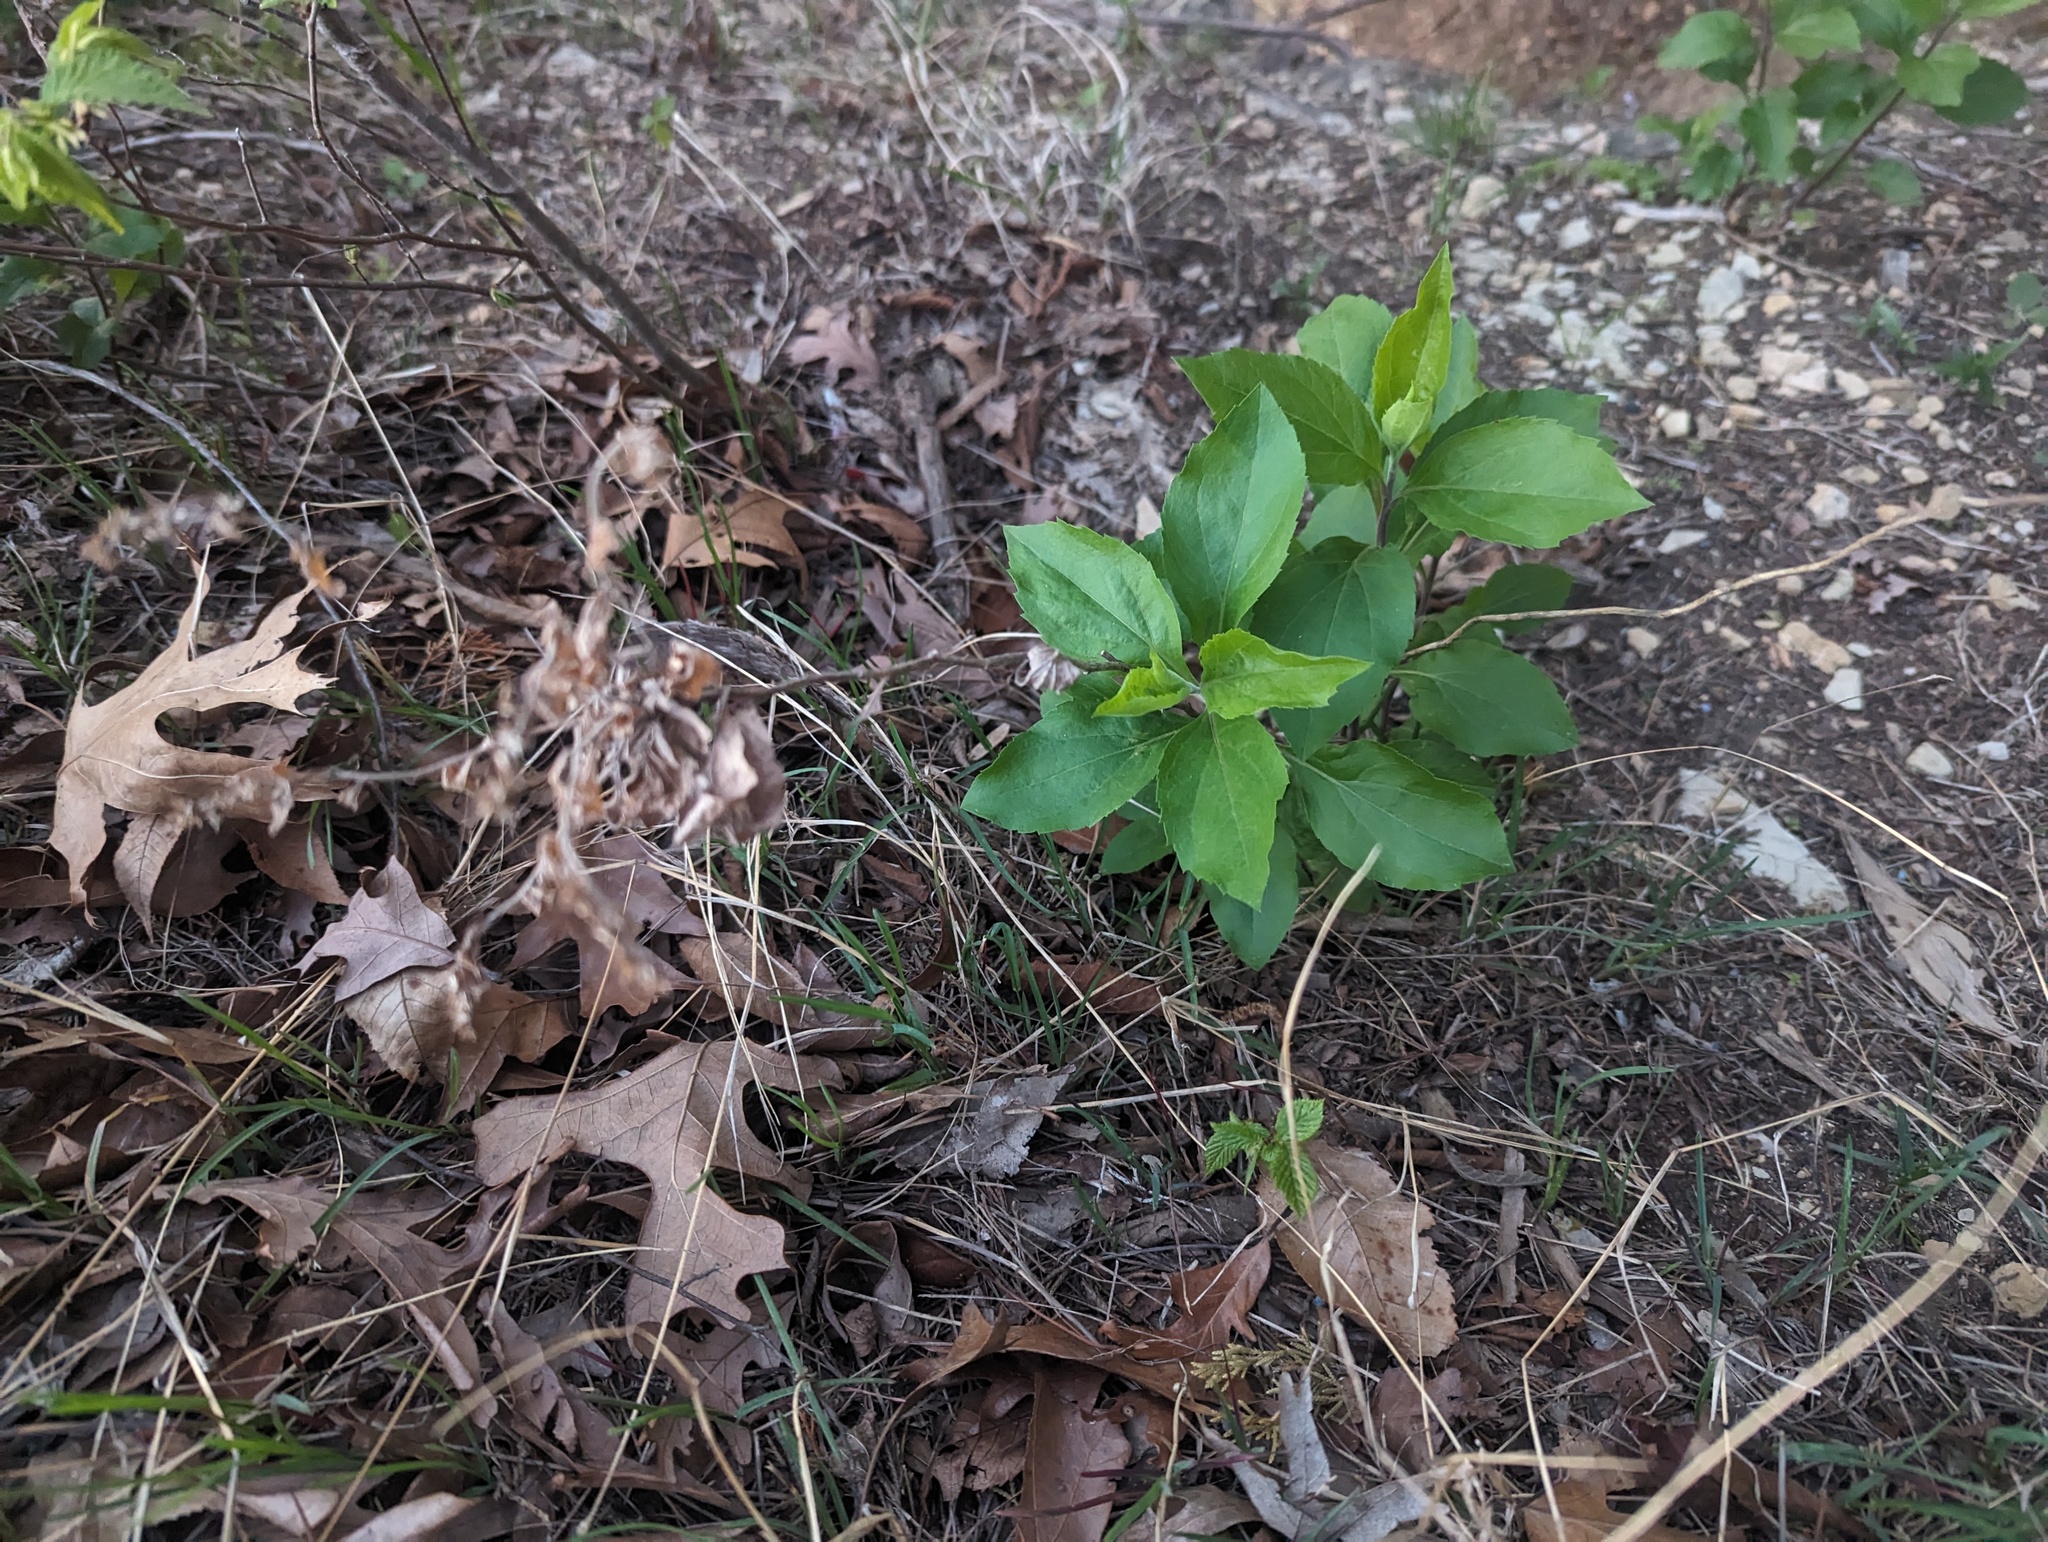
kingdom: Plantae
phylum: Tracheophyta
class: Magnoliopsida
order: Asterales
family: Asteraceae
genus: Solidago
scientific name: Solidago drummondii
